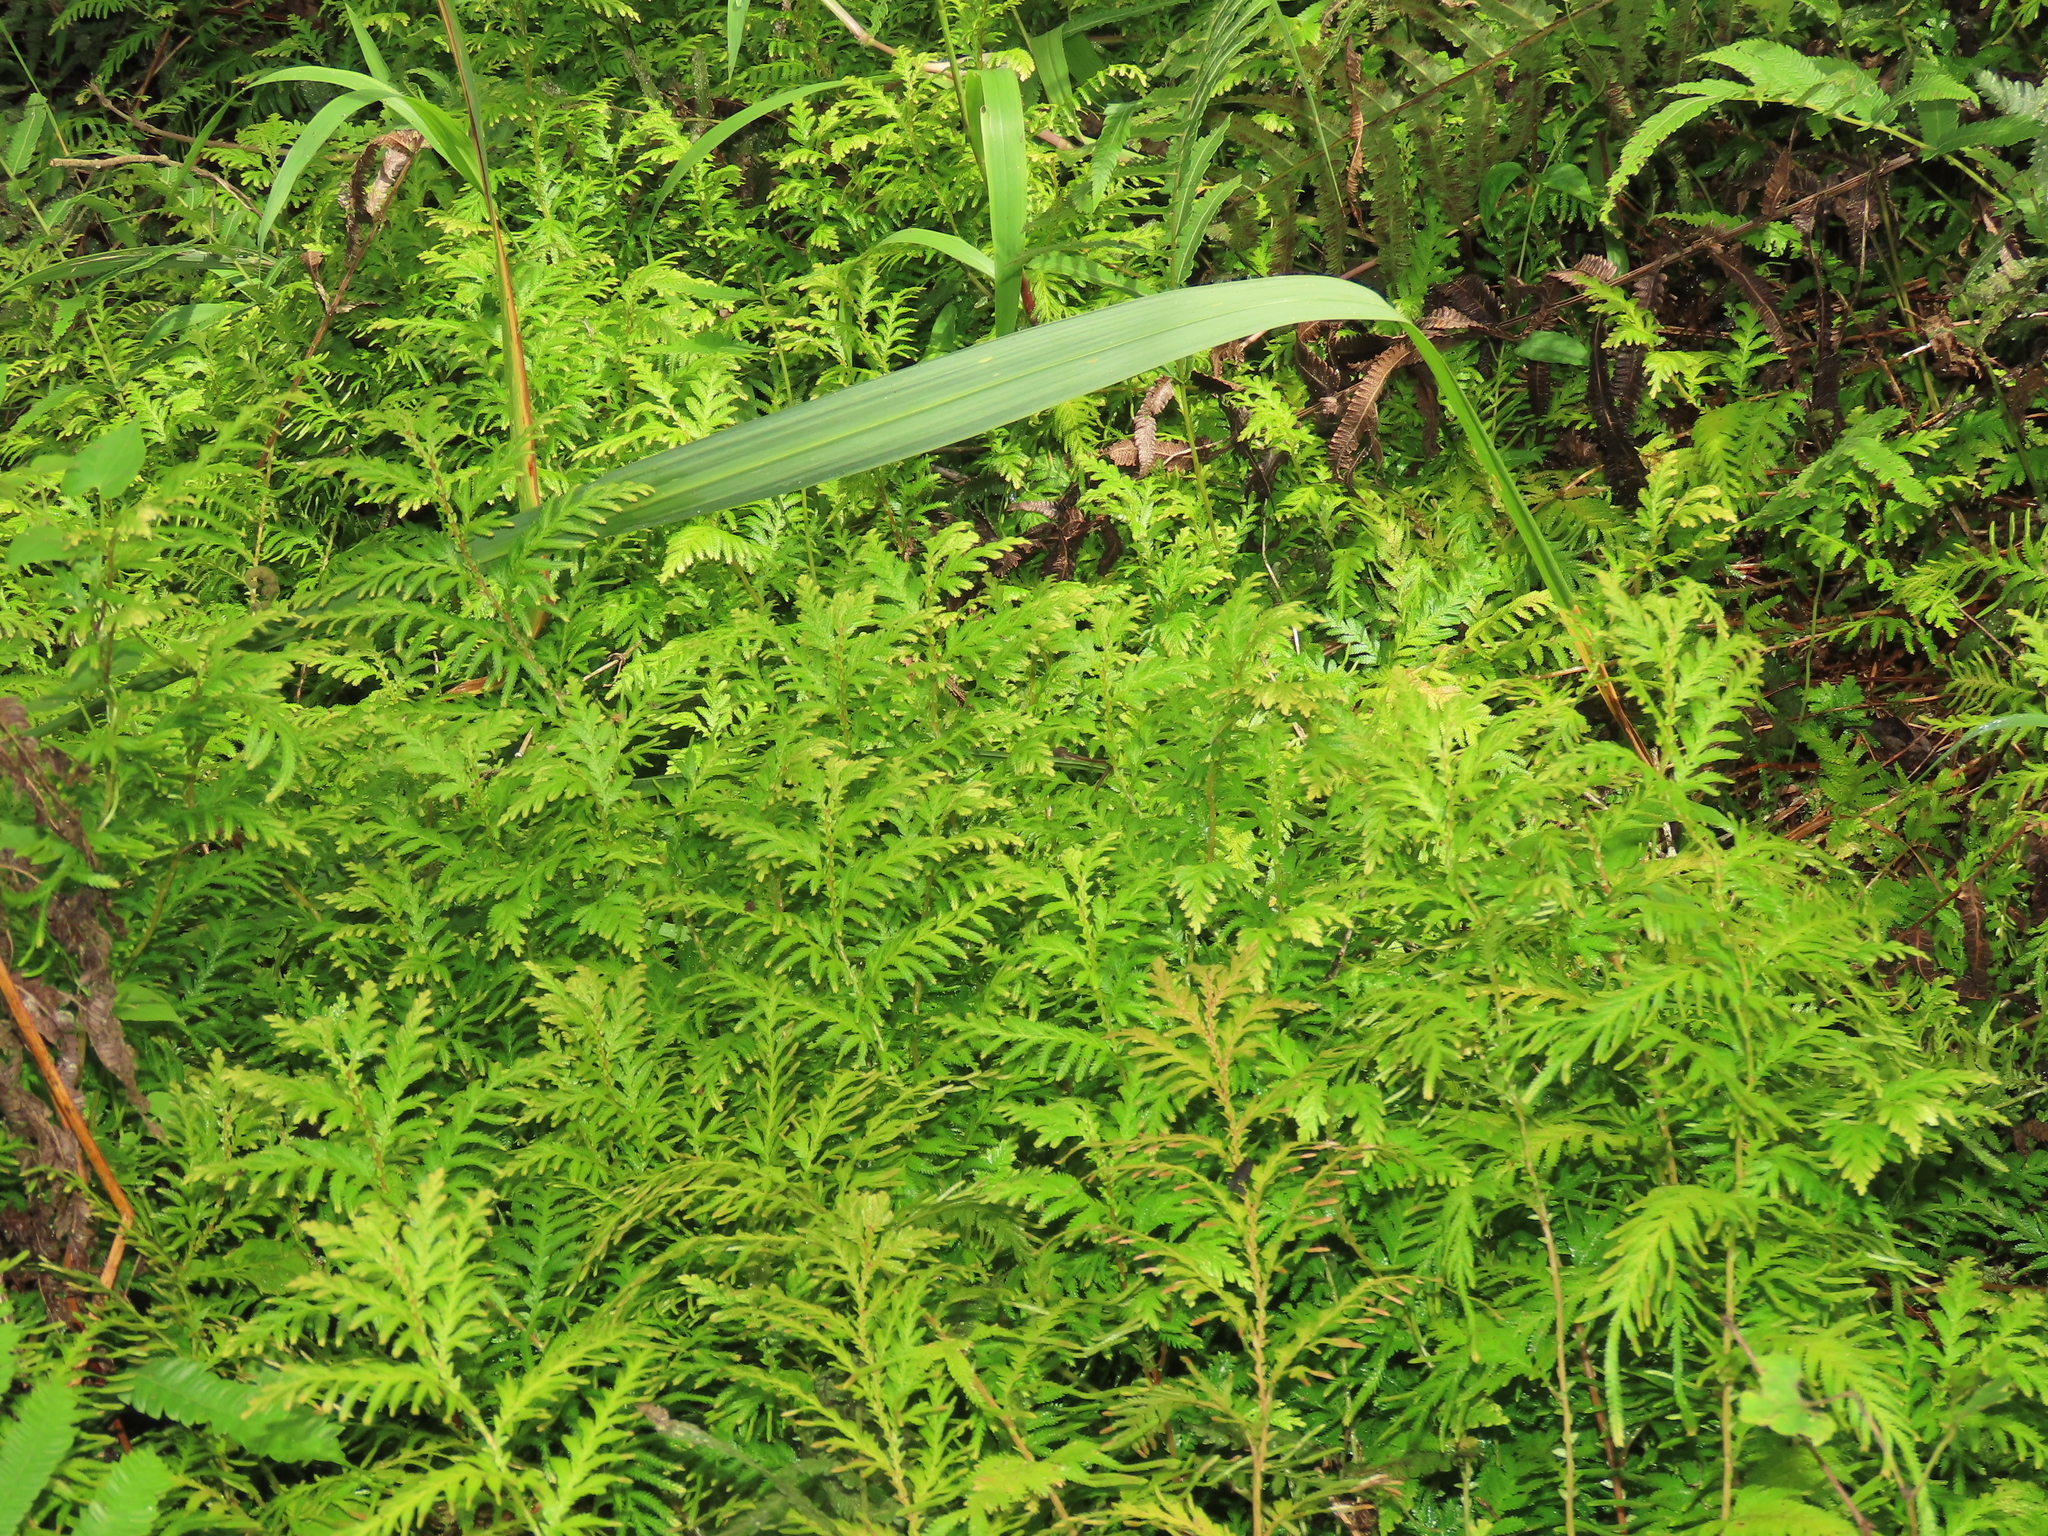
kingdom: Plantae
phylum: Tracheophyta
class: Lycopodiopsida
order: Selaginellales
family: Selaginellaceae
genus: Selaginella
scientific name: Selaginella delicatula
